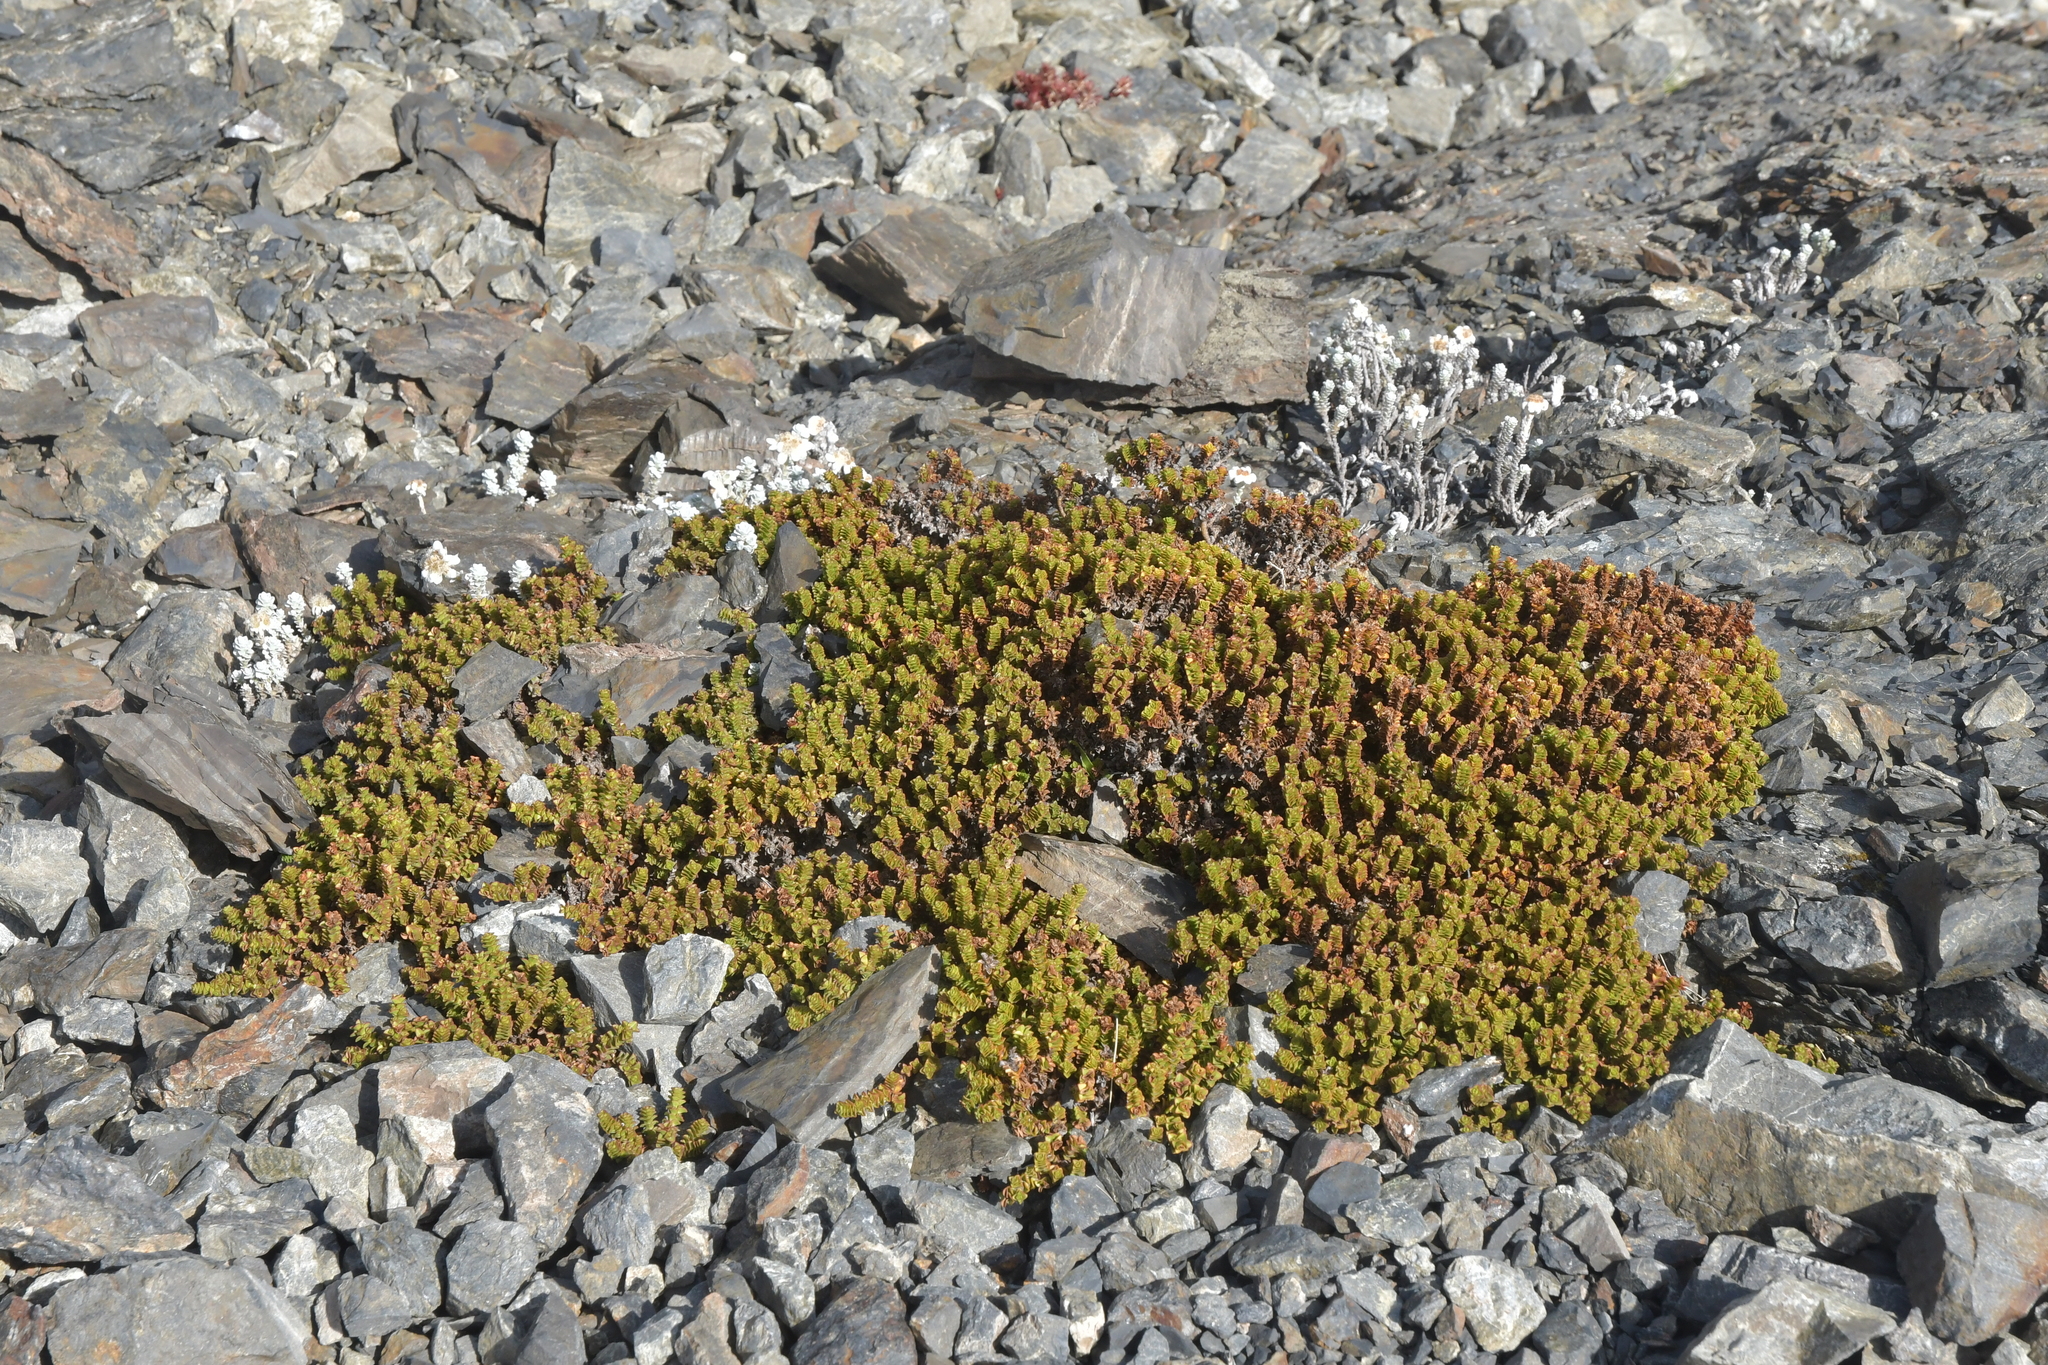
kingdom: Plantae
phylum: Tracheophyta
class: Magnoliopsida
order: Lamiales
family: Plantaginaceae
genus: Veronica
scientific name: Veronica epacridea
